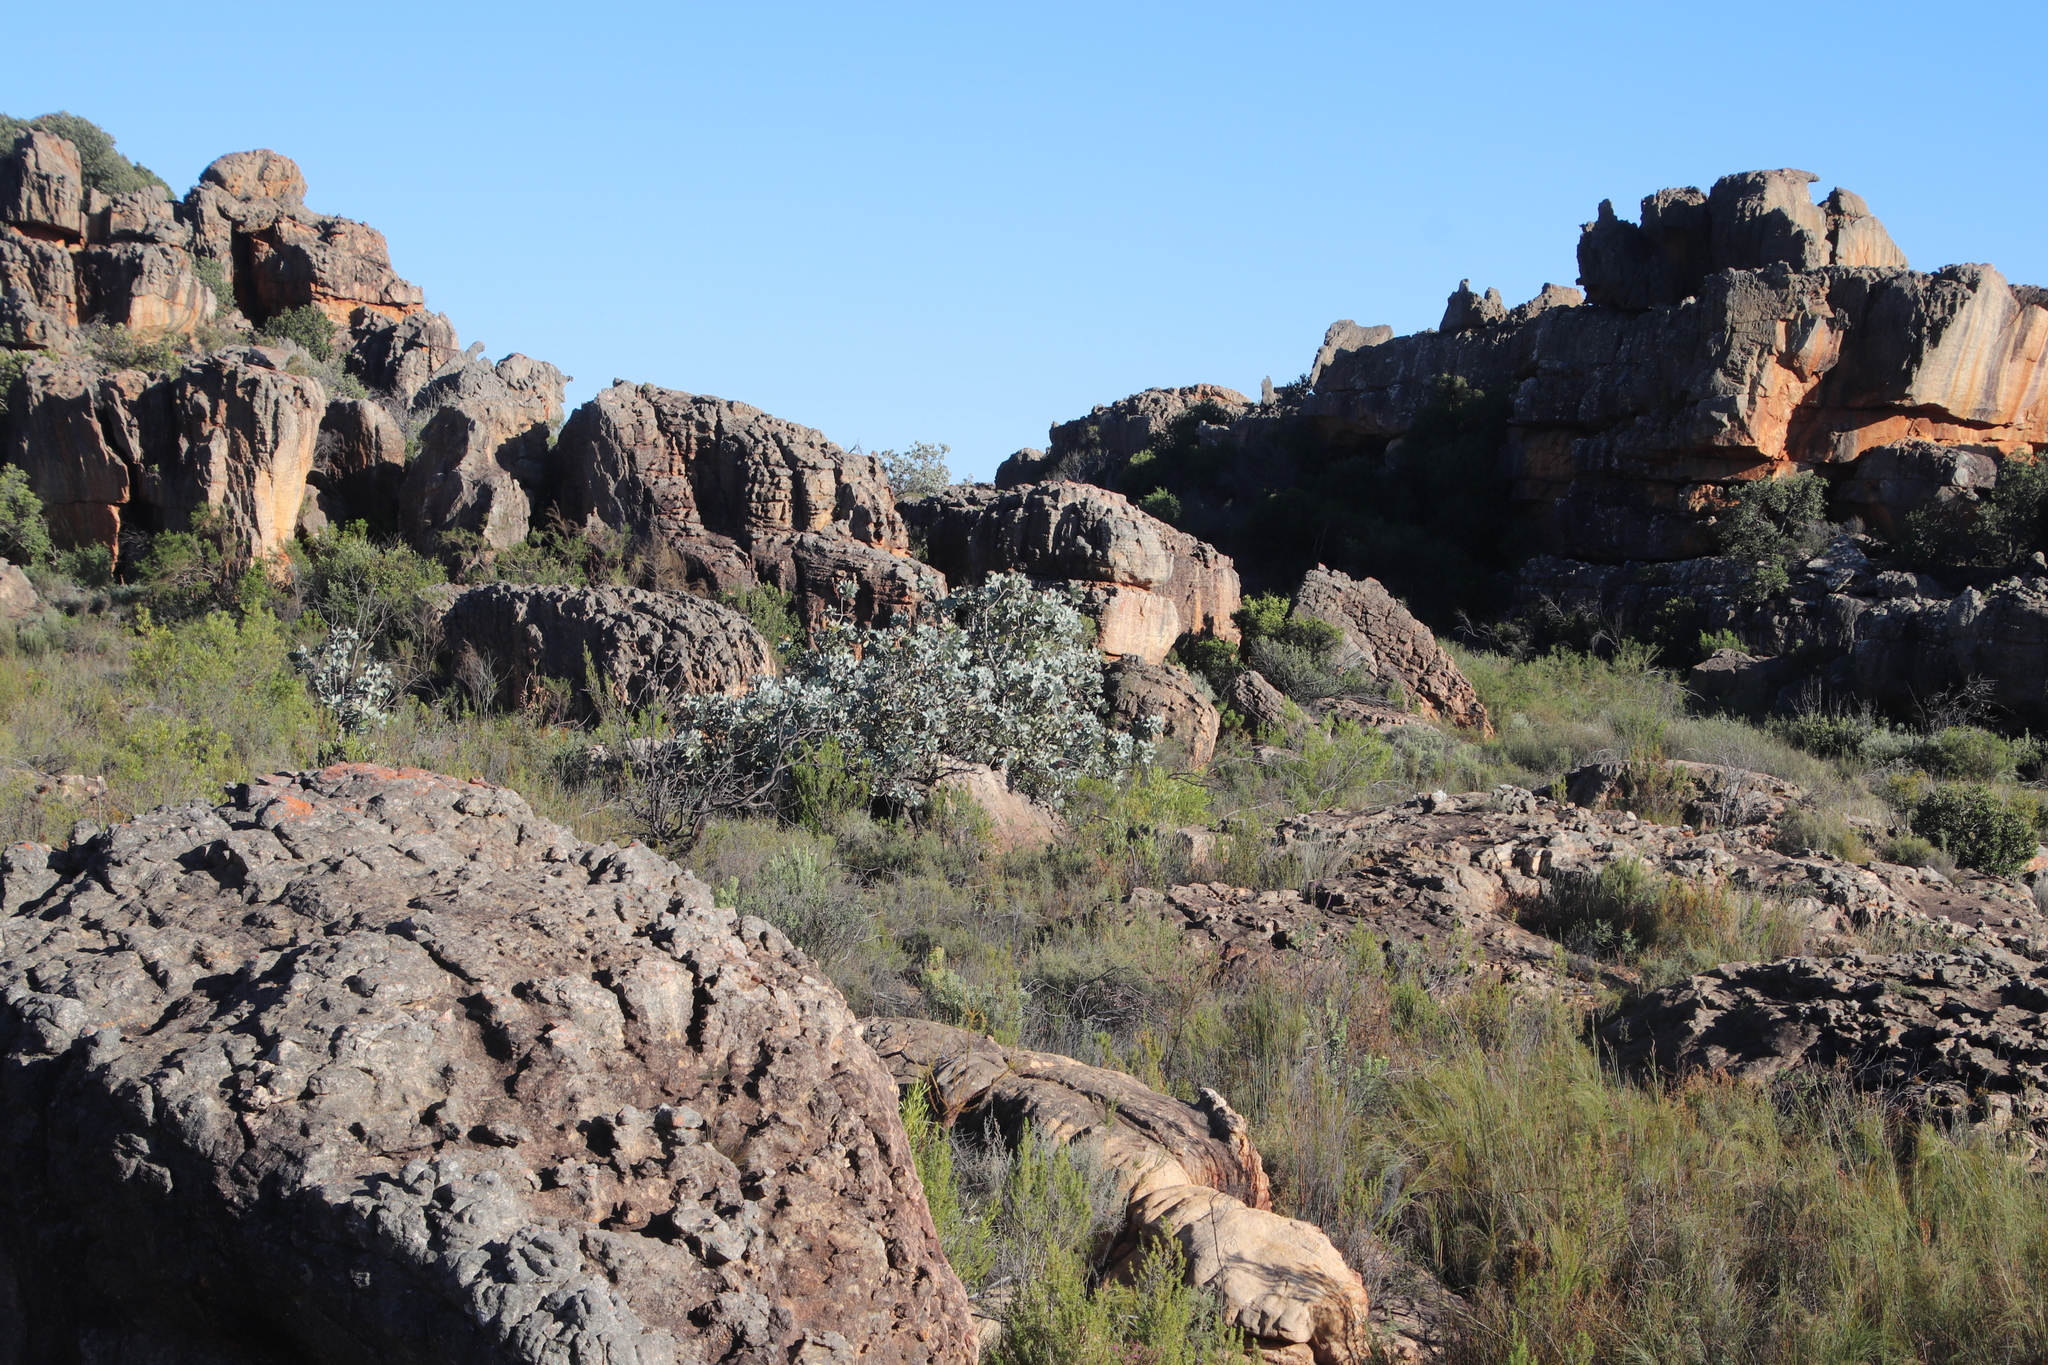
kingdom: Plantae
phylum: Tracheophyta
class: Magnoliopsida
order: Proteales
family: Proteaceae
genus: Protea
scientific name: Protea nitida
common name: Tree protea
